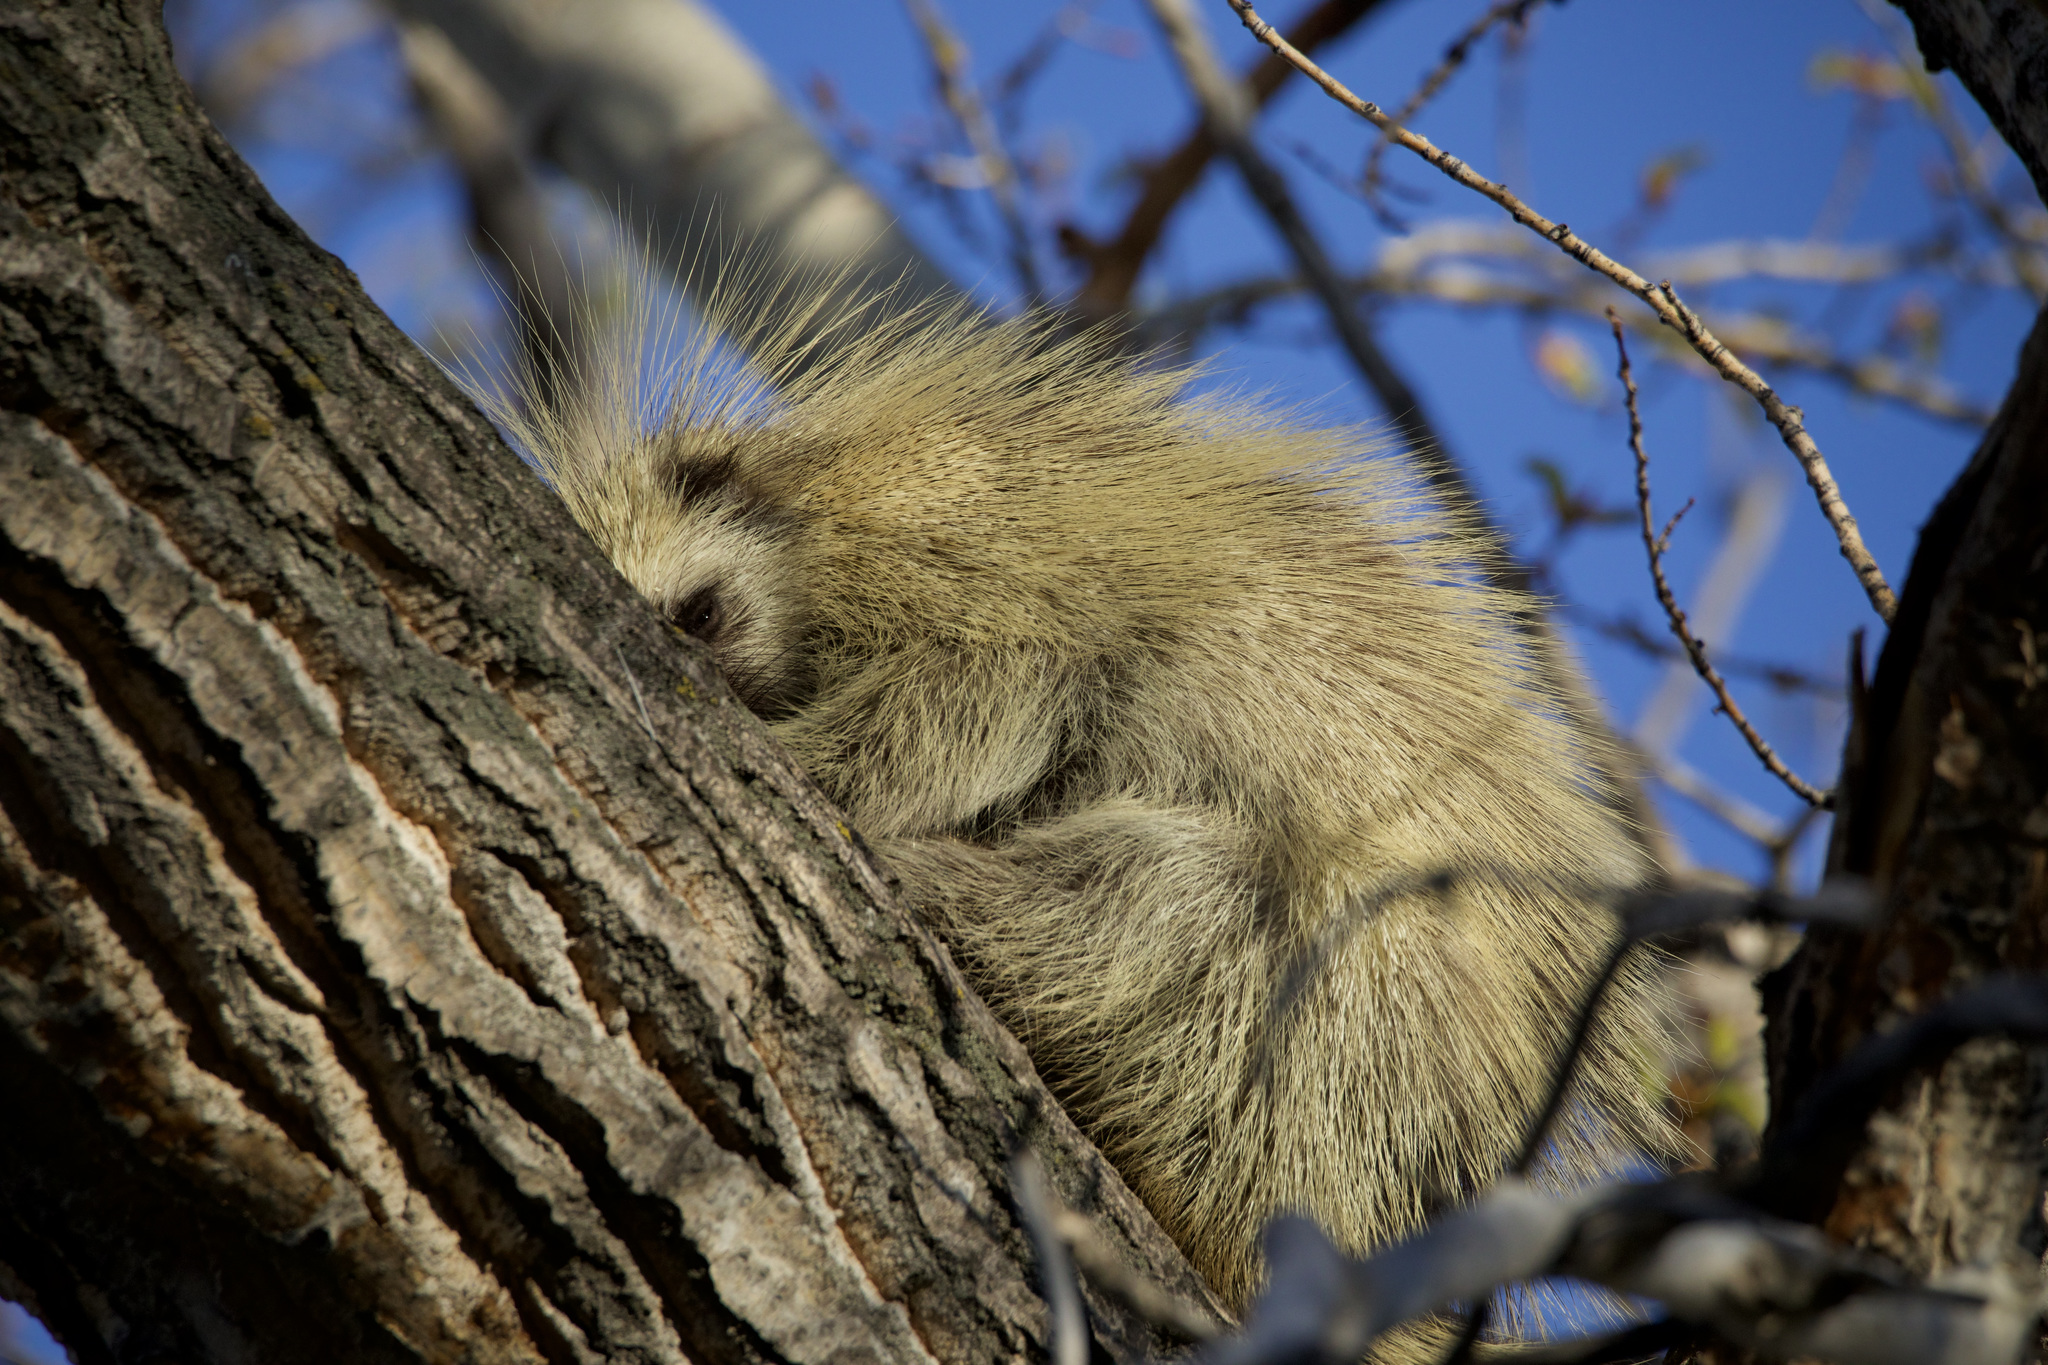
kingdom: Animalia
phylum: Chordata
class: Mammalia
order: Rodentia
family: Erethizontidae
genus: Erethizon
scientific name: Erethizon dorsatus
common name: North american porcupine
